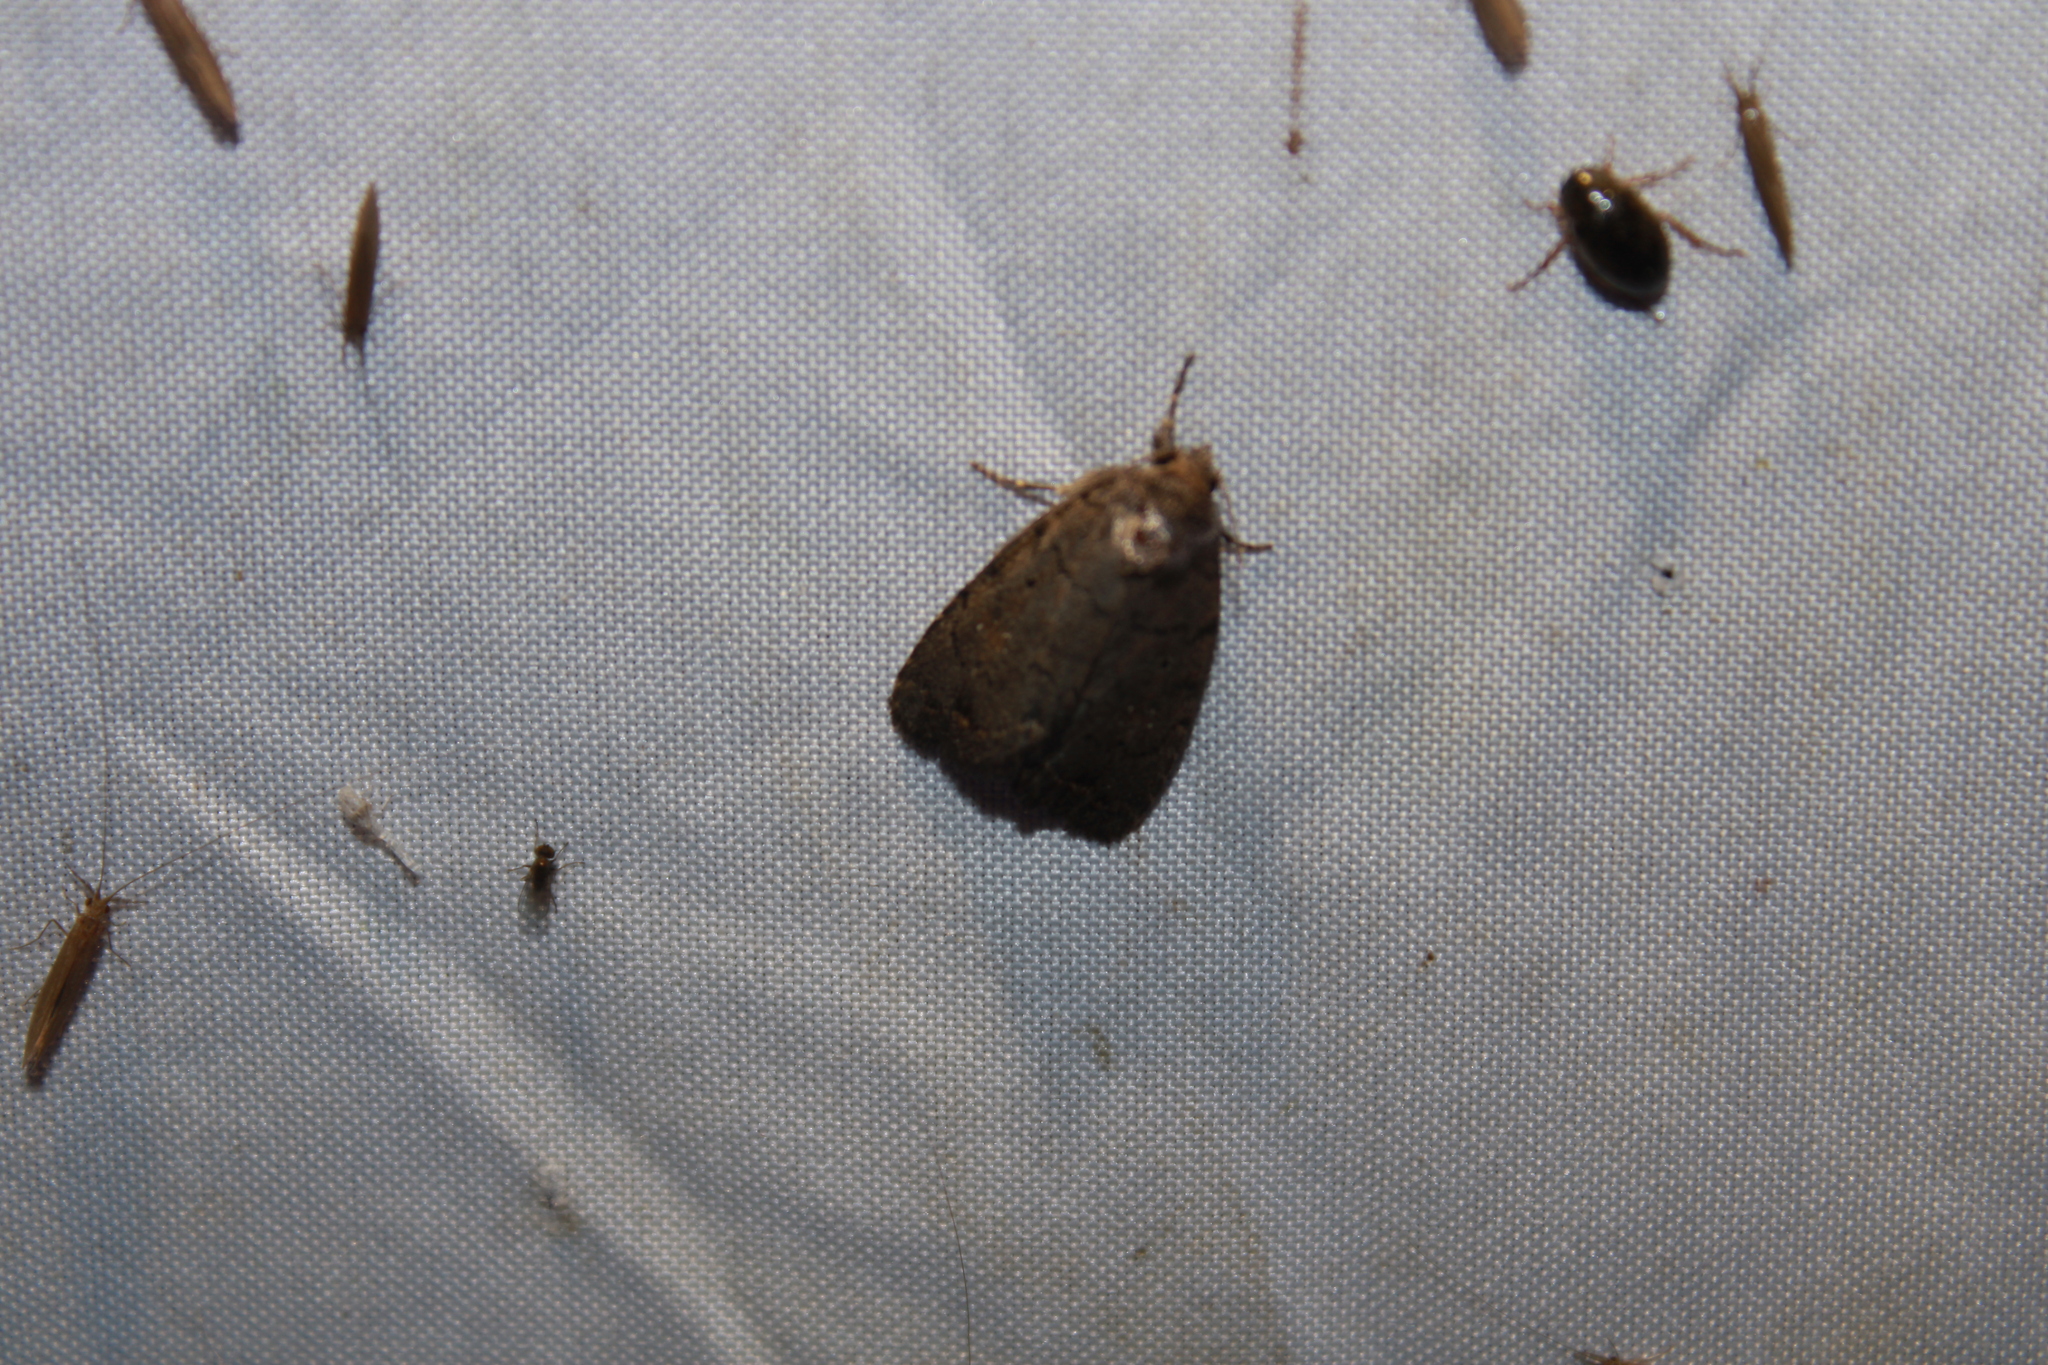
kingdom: Animalia
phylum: Arthropoda
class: Insecta
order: Lepidoptera
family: Noctuidae
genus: Athetis
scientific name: Athetis tarda
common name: Slowpoke moth
